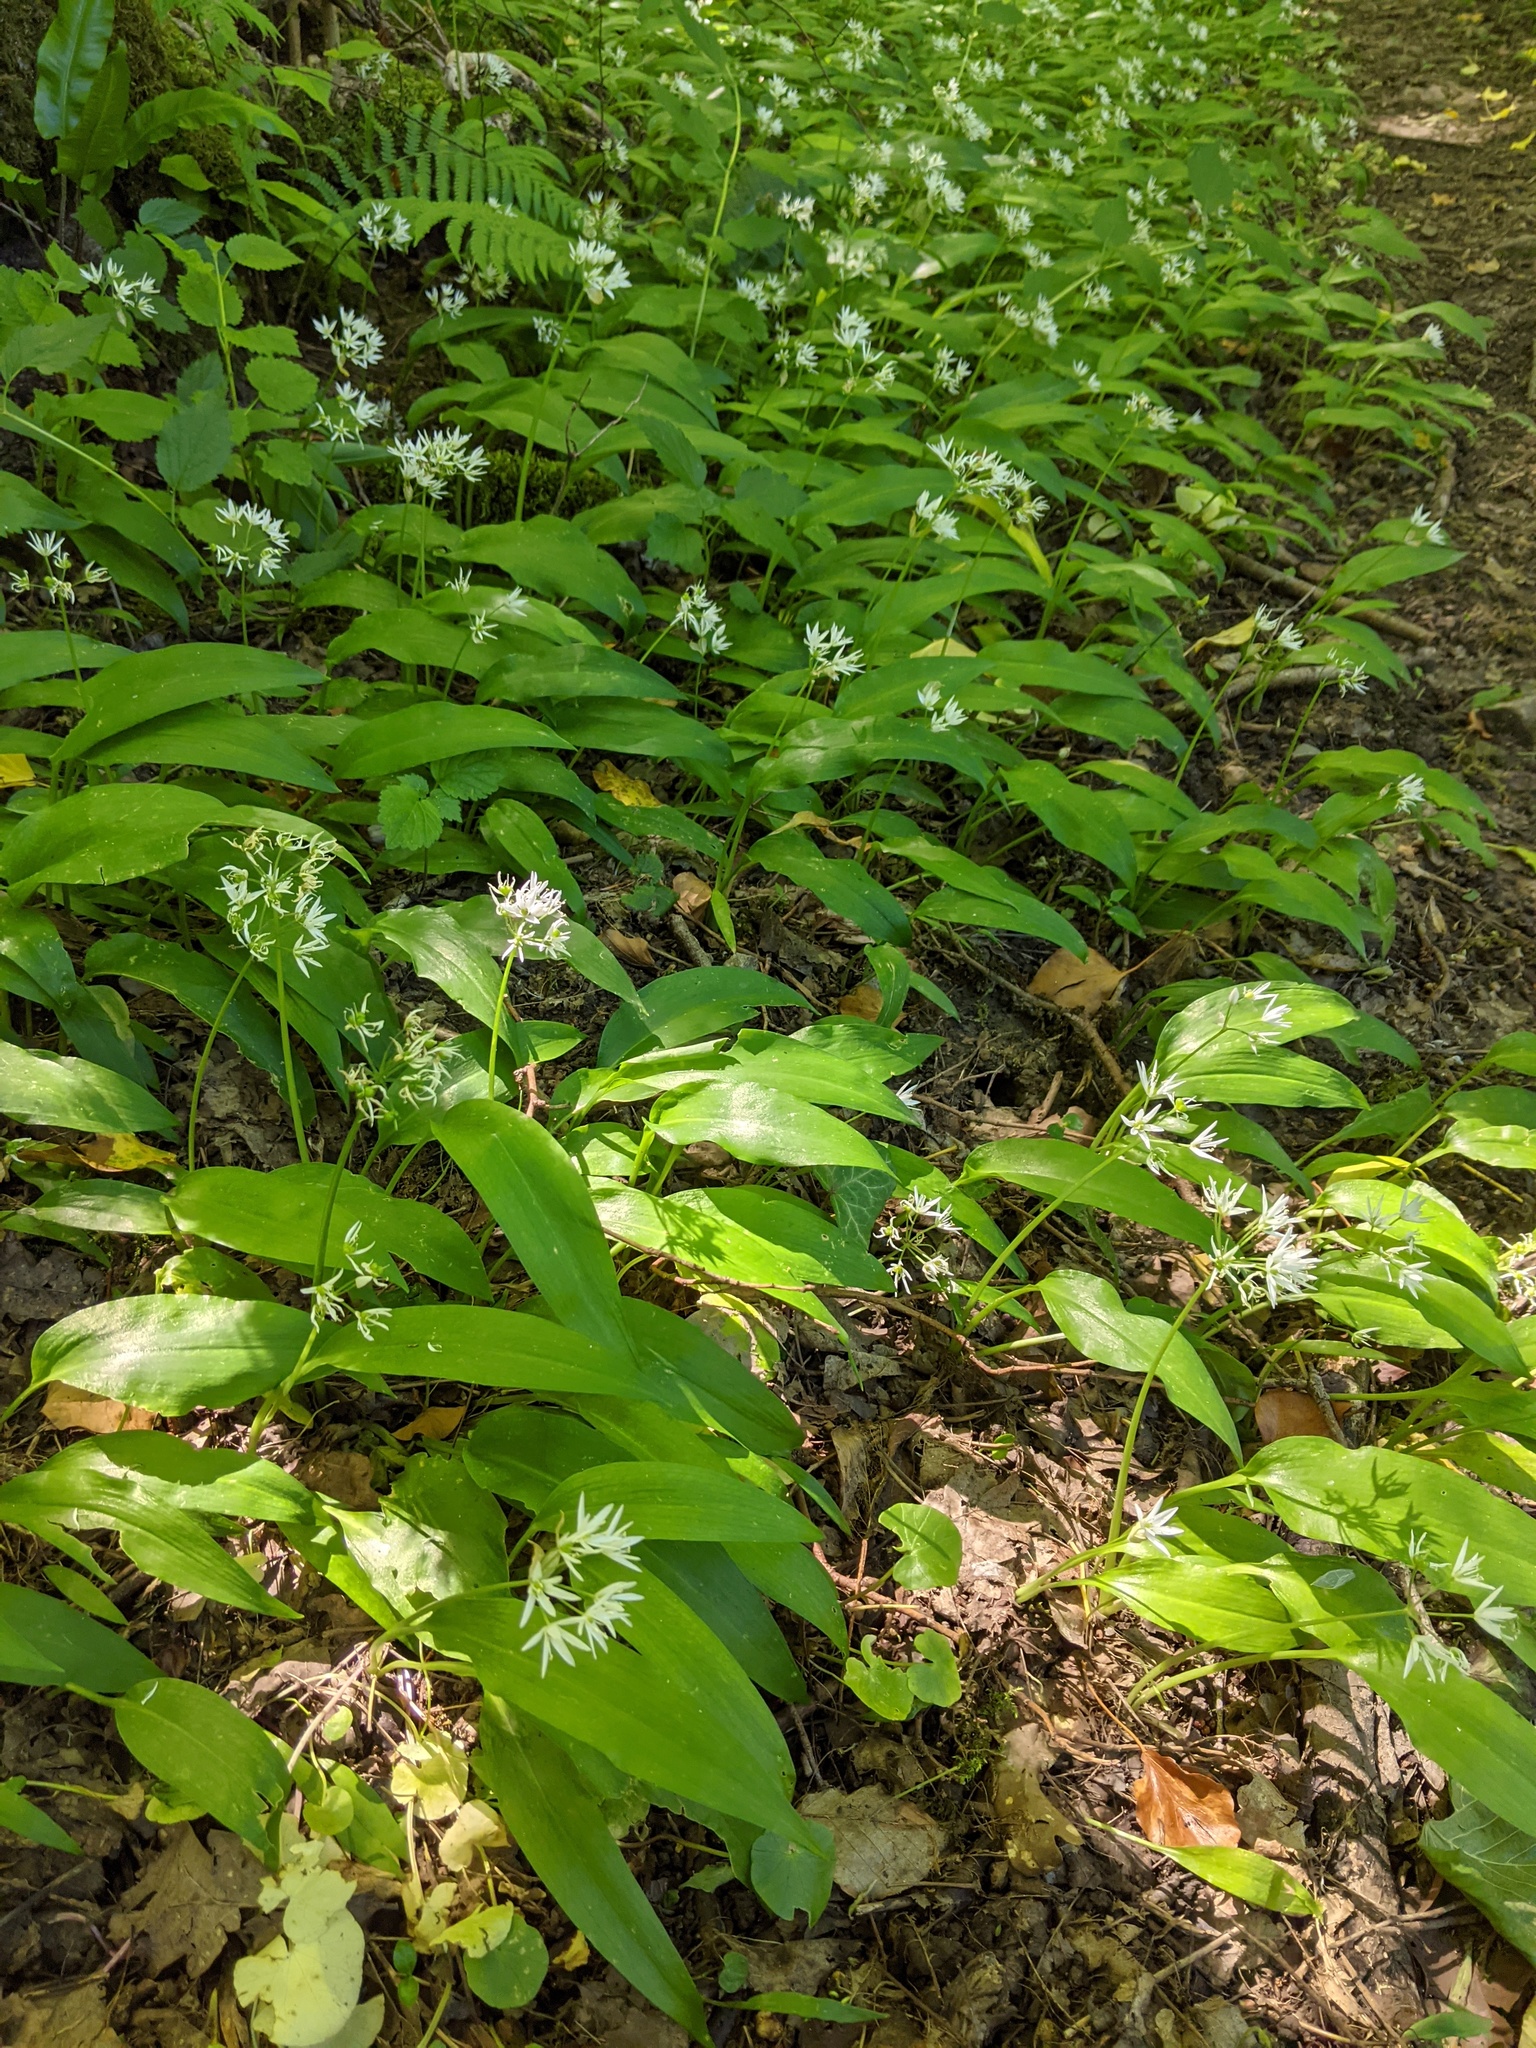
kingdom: Plantae
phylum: Tracheophyta
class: Liliopsida
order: Asparagales
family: Amaryllidaceae
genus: Allium
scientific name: Allium ursinum
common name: Ramsons
